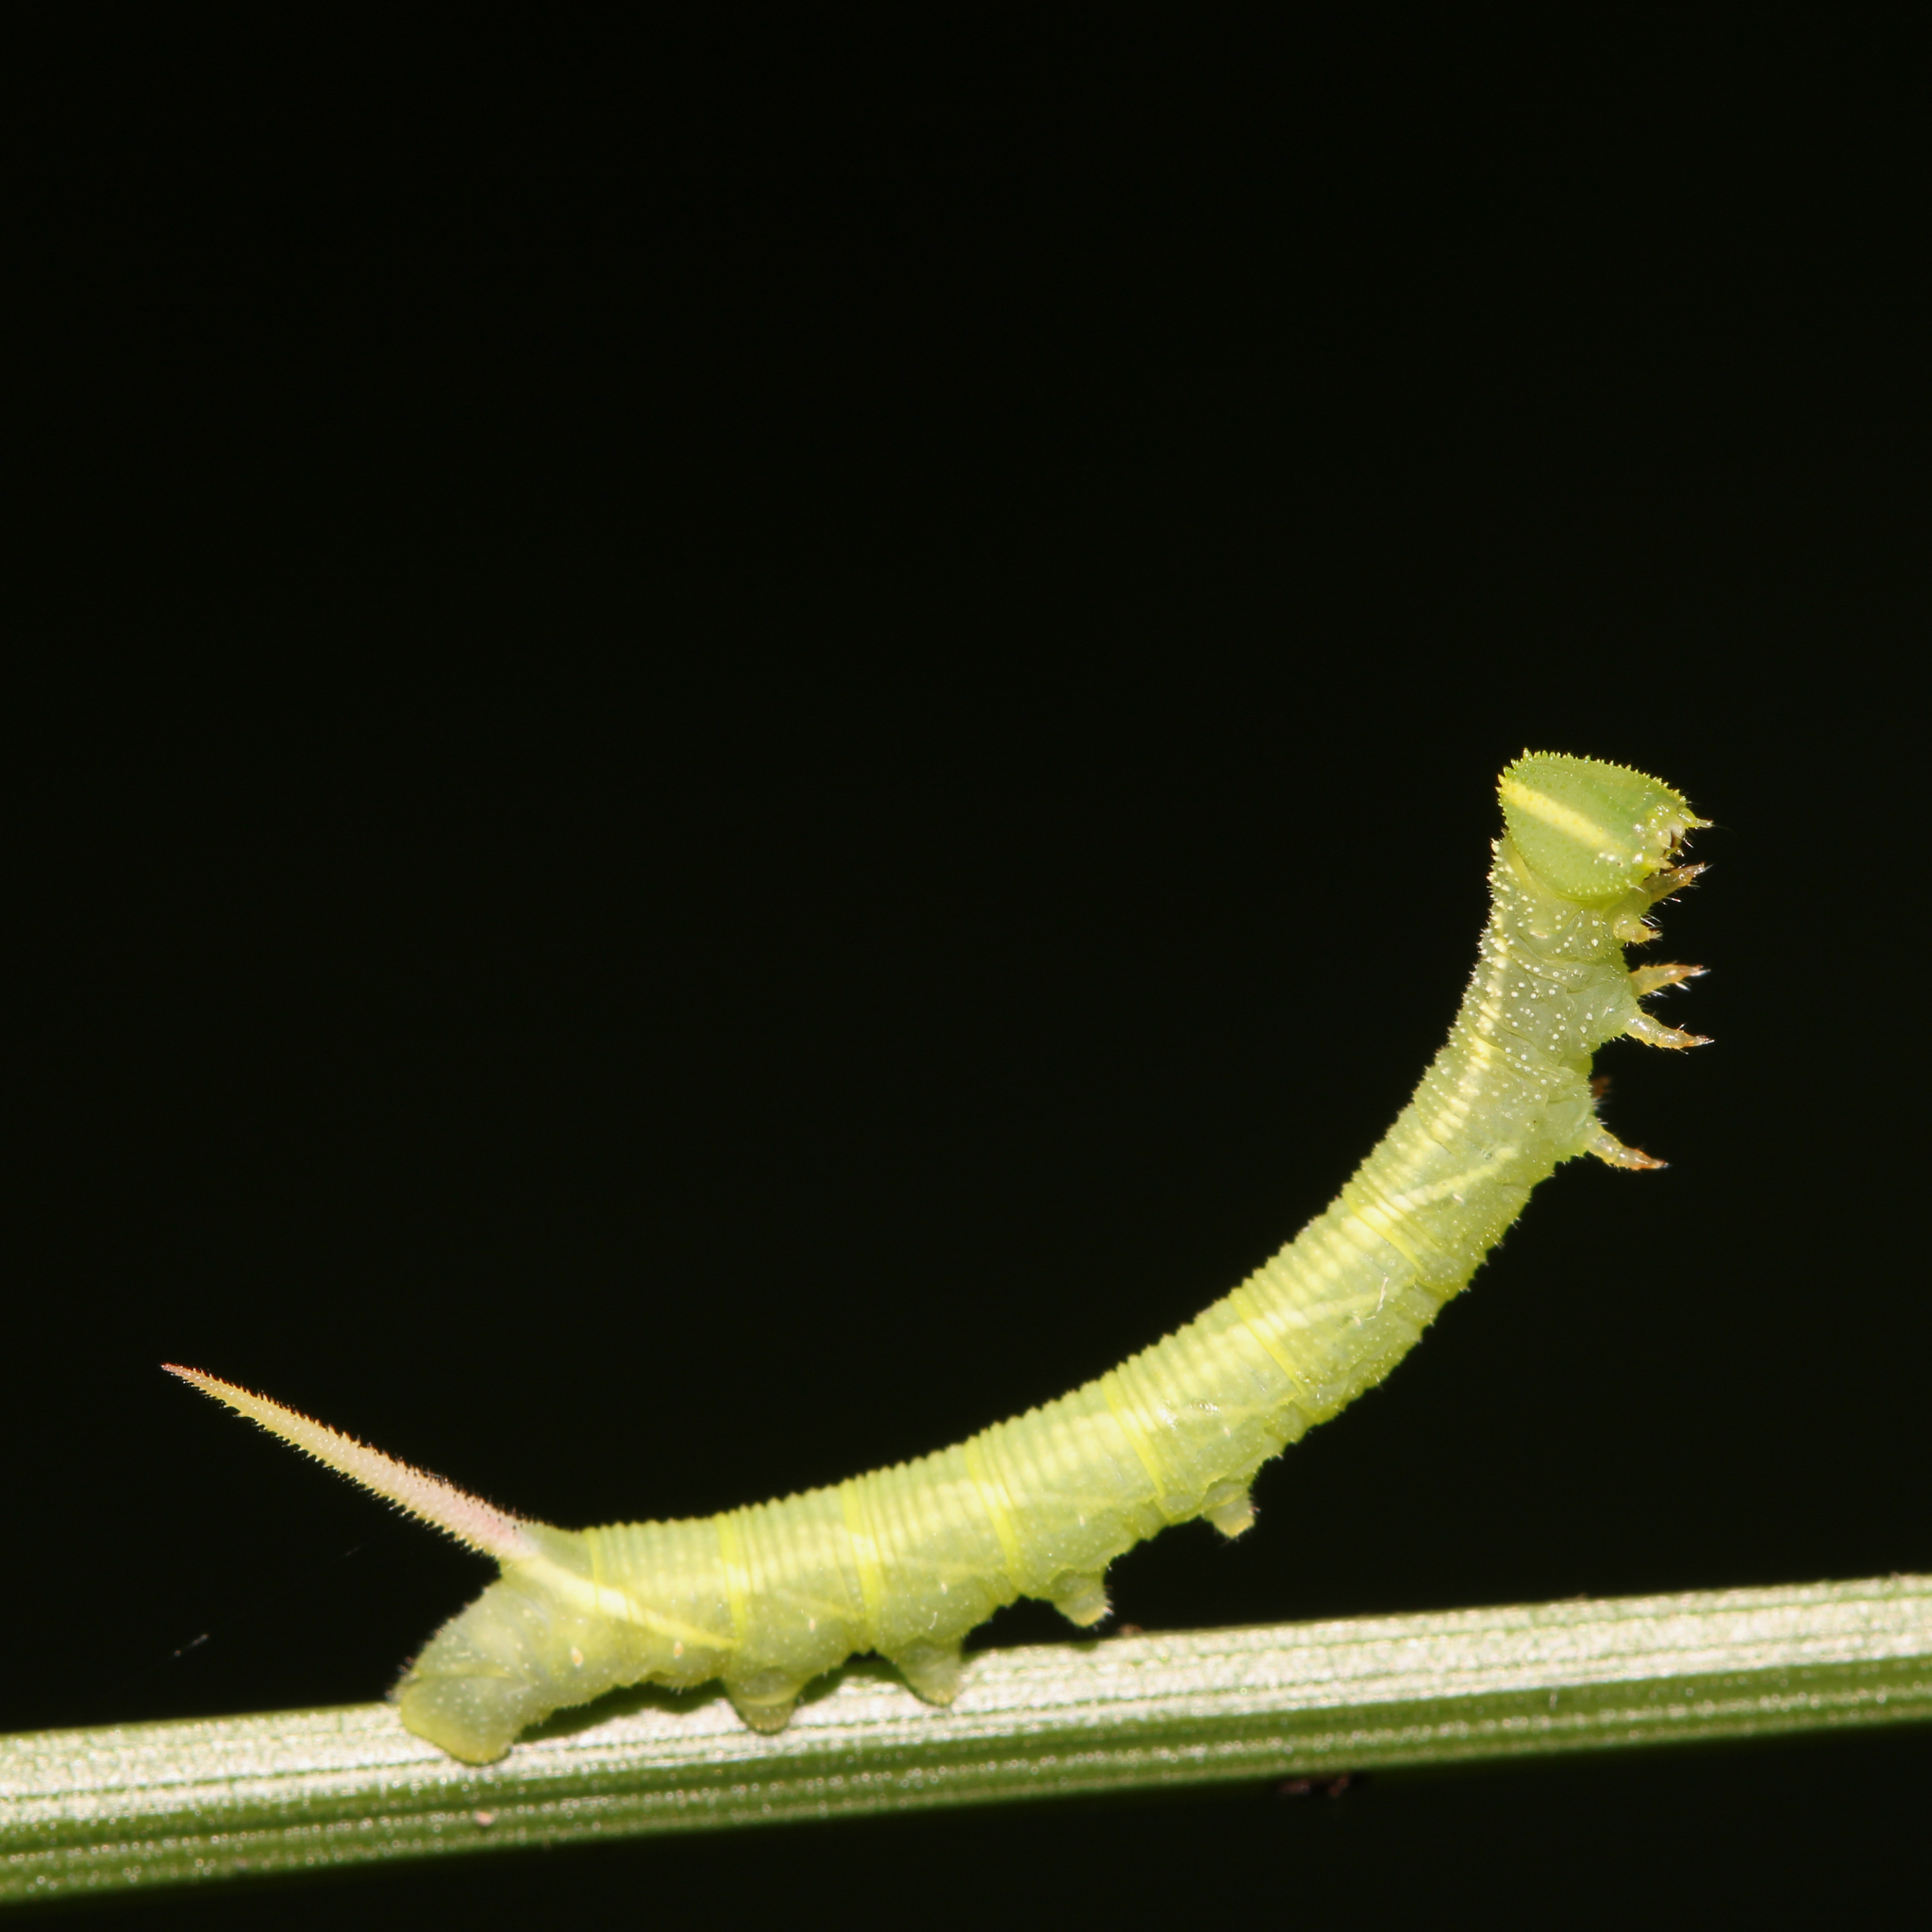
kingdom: Animalia
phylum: Arthropoda
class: Insecta
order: Lepidoptera
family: Sphingidae
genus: Ceratomia
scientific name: Ceratomia undulosa
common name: Waved sphinx
